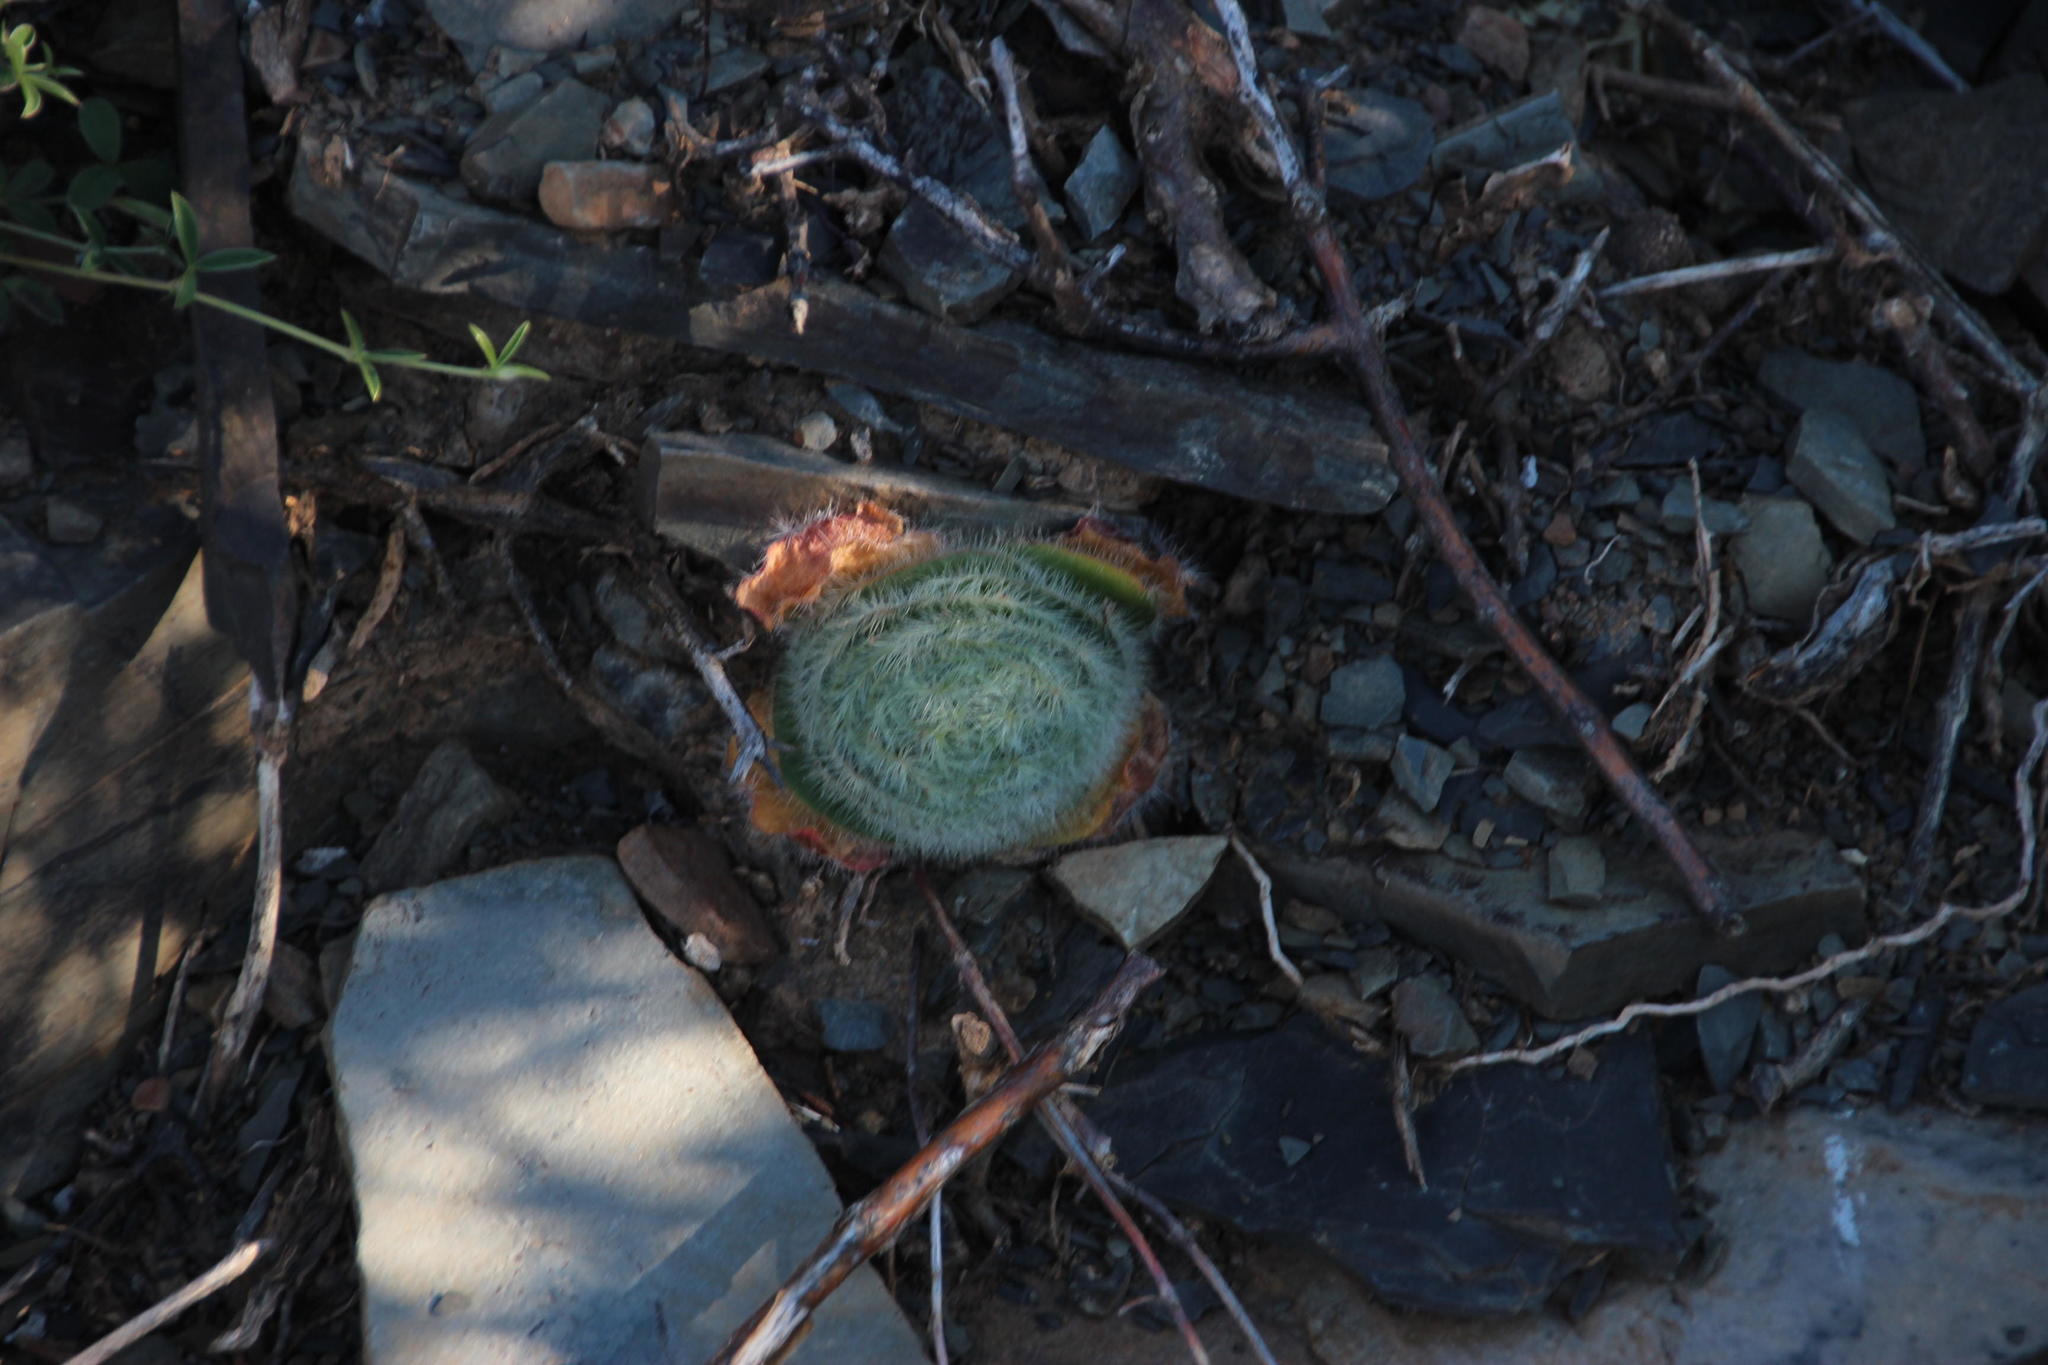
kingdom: Plantae
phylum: Tracheophyta
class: Magnoliopsida
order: Saxifragales
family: Crassulaceae
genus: Crassula
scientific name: Crassula barbata
